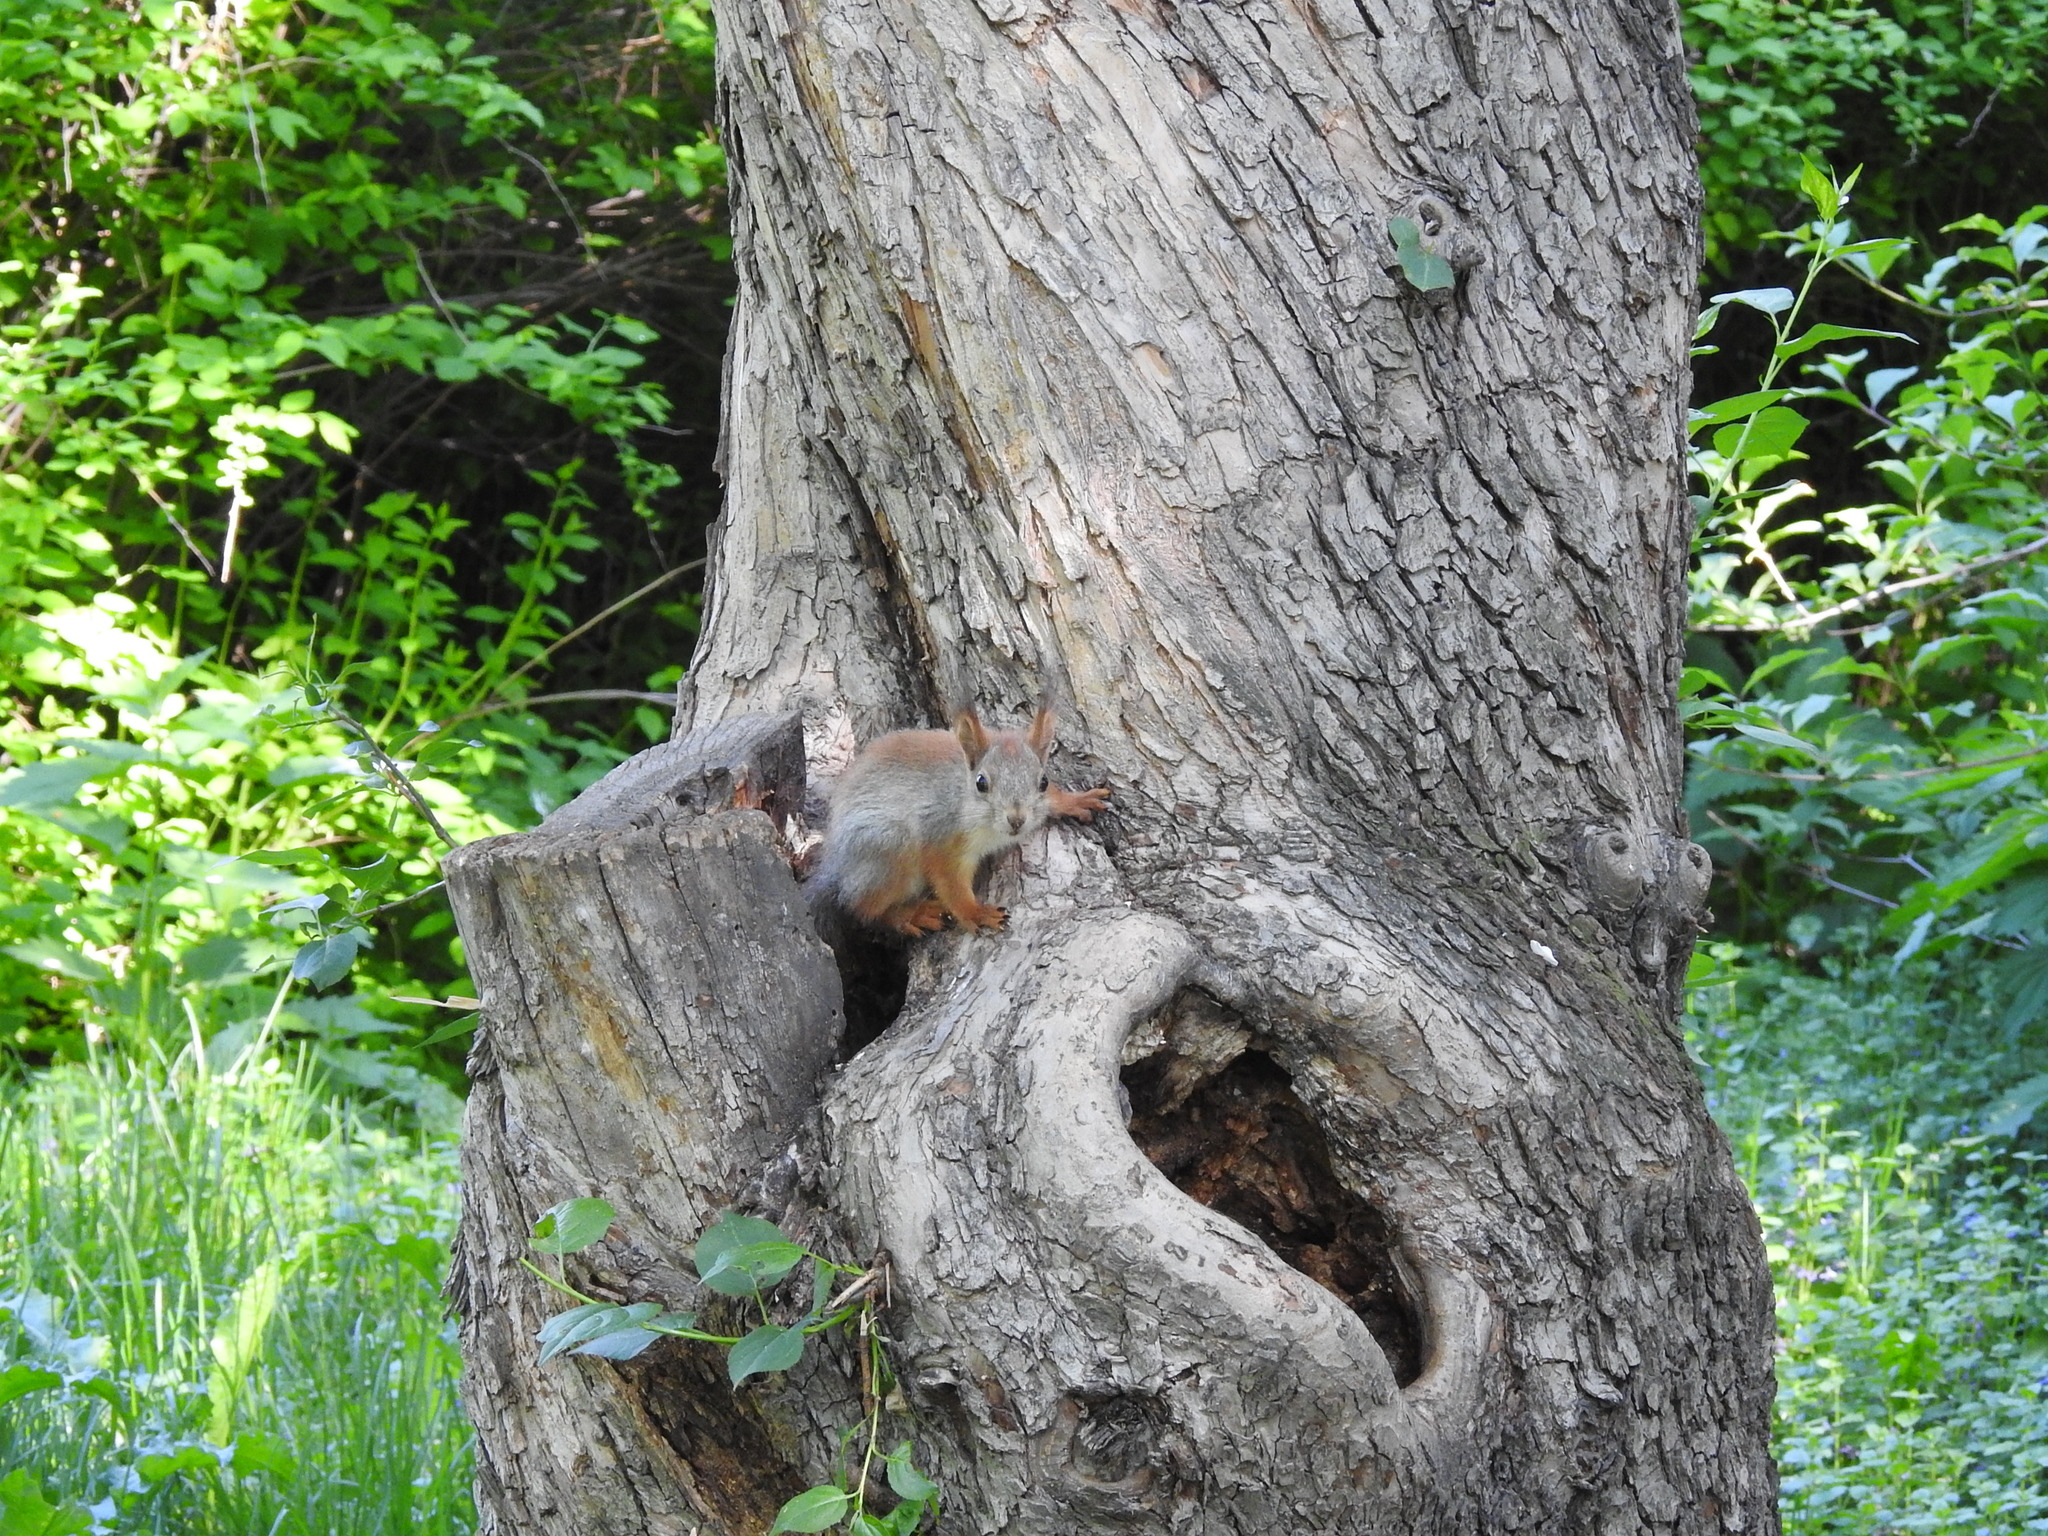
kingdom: Animalia
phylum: Chordata
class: Mammalia
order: Rodentia
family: Sciuridae
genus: Sciurus
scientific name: Sciurus vulgaris
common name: Eurasian red squirrel
